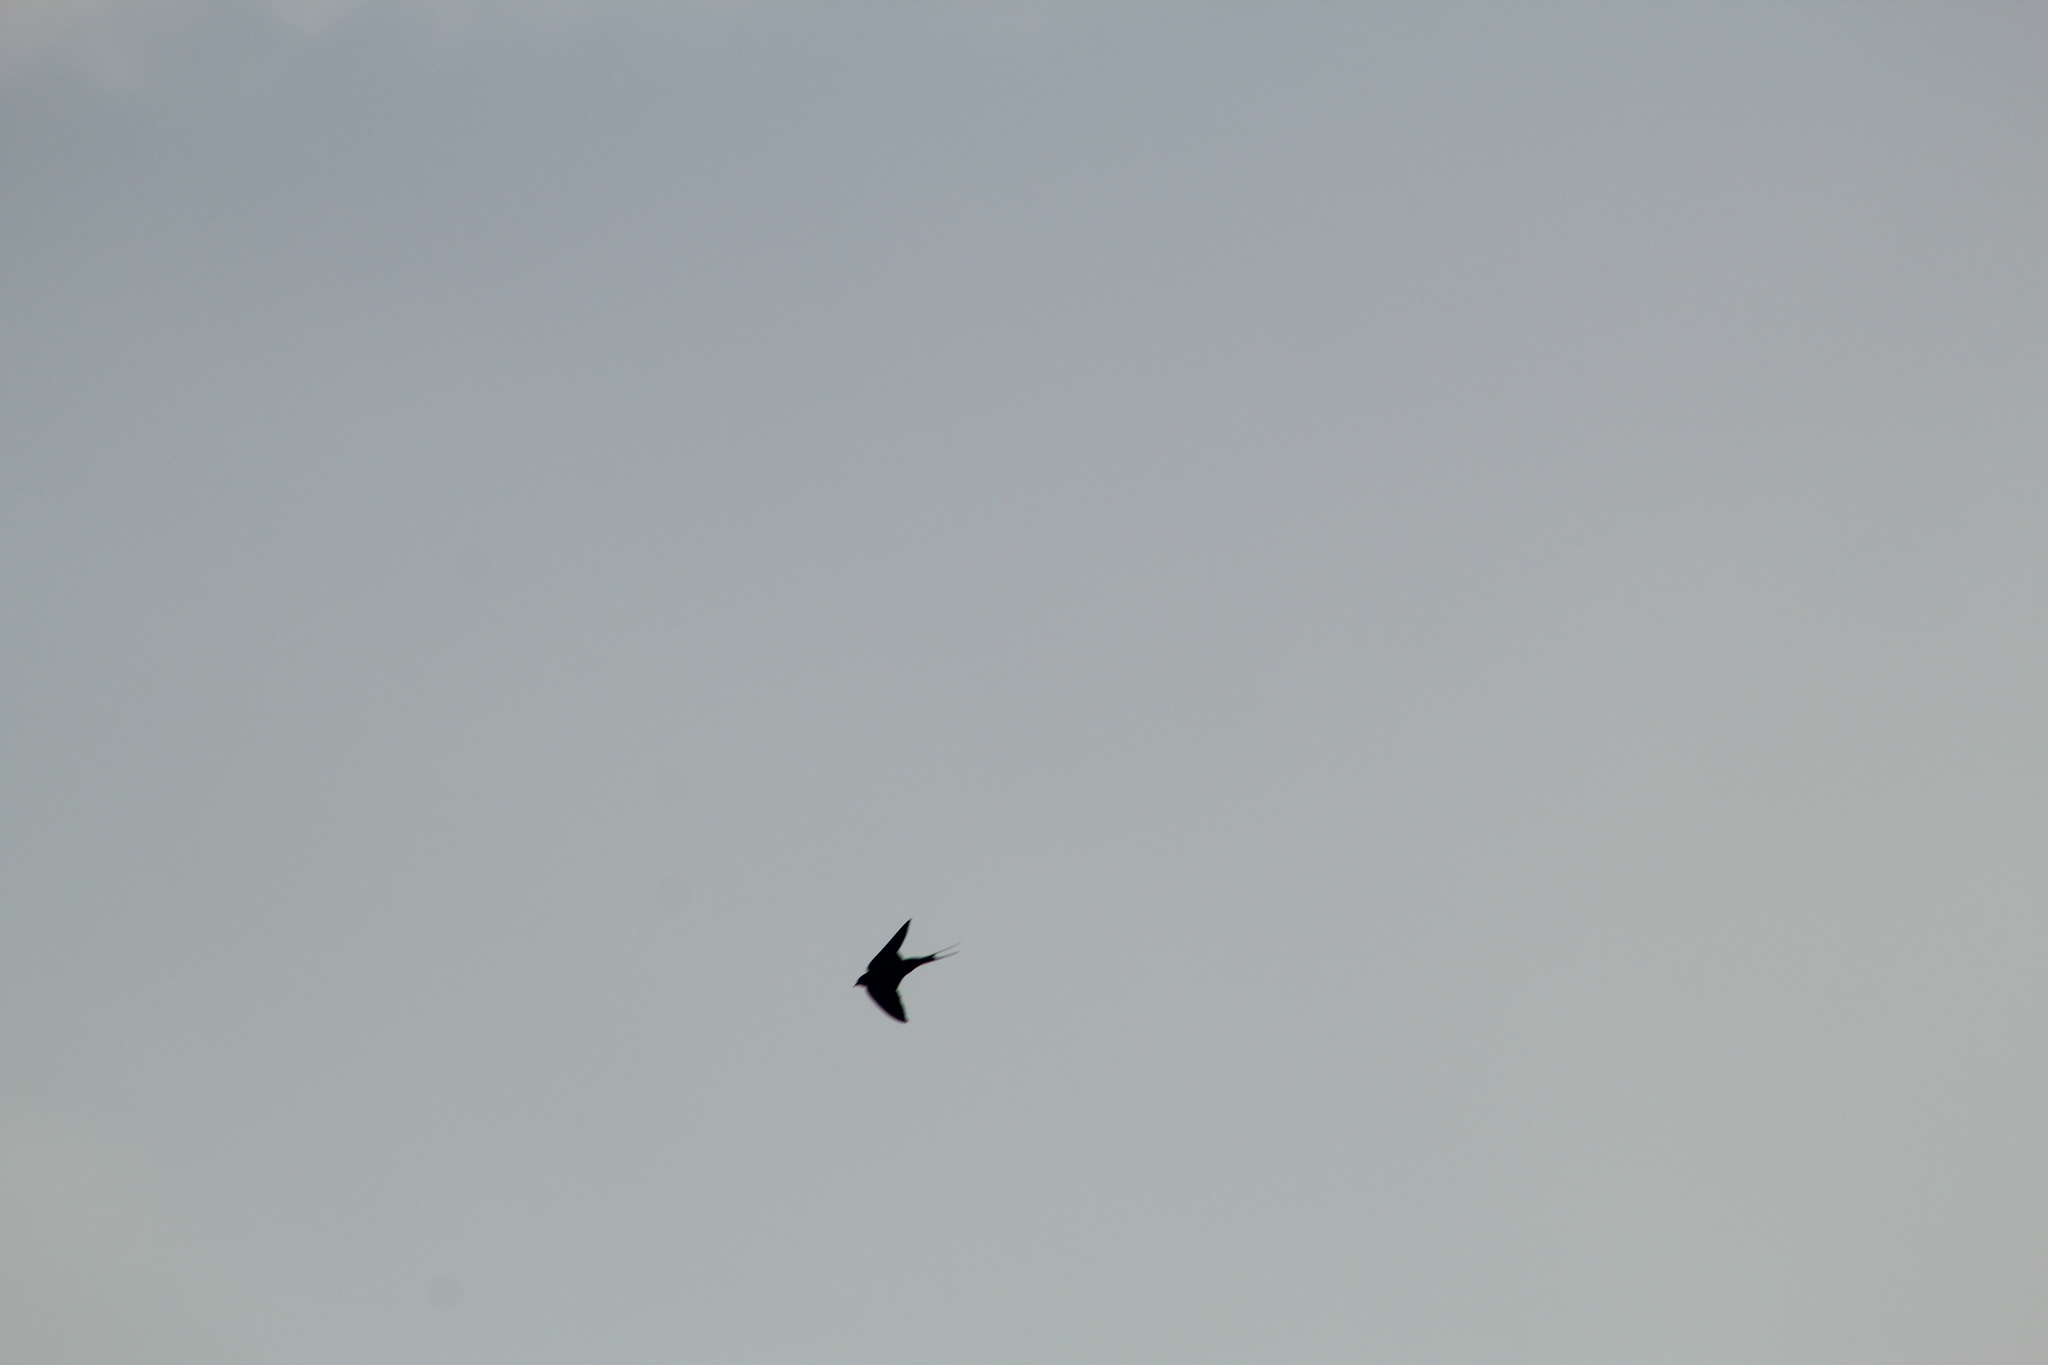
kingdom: Animalia
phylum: Chordata
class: Aves
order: Passeriformes
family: Hirundinidae
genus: Hirundo
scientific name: Hirundo rustica
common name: Barn swallow
